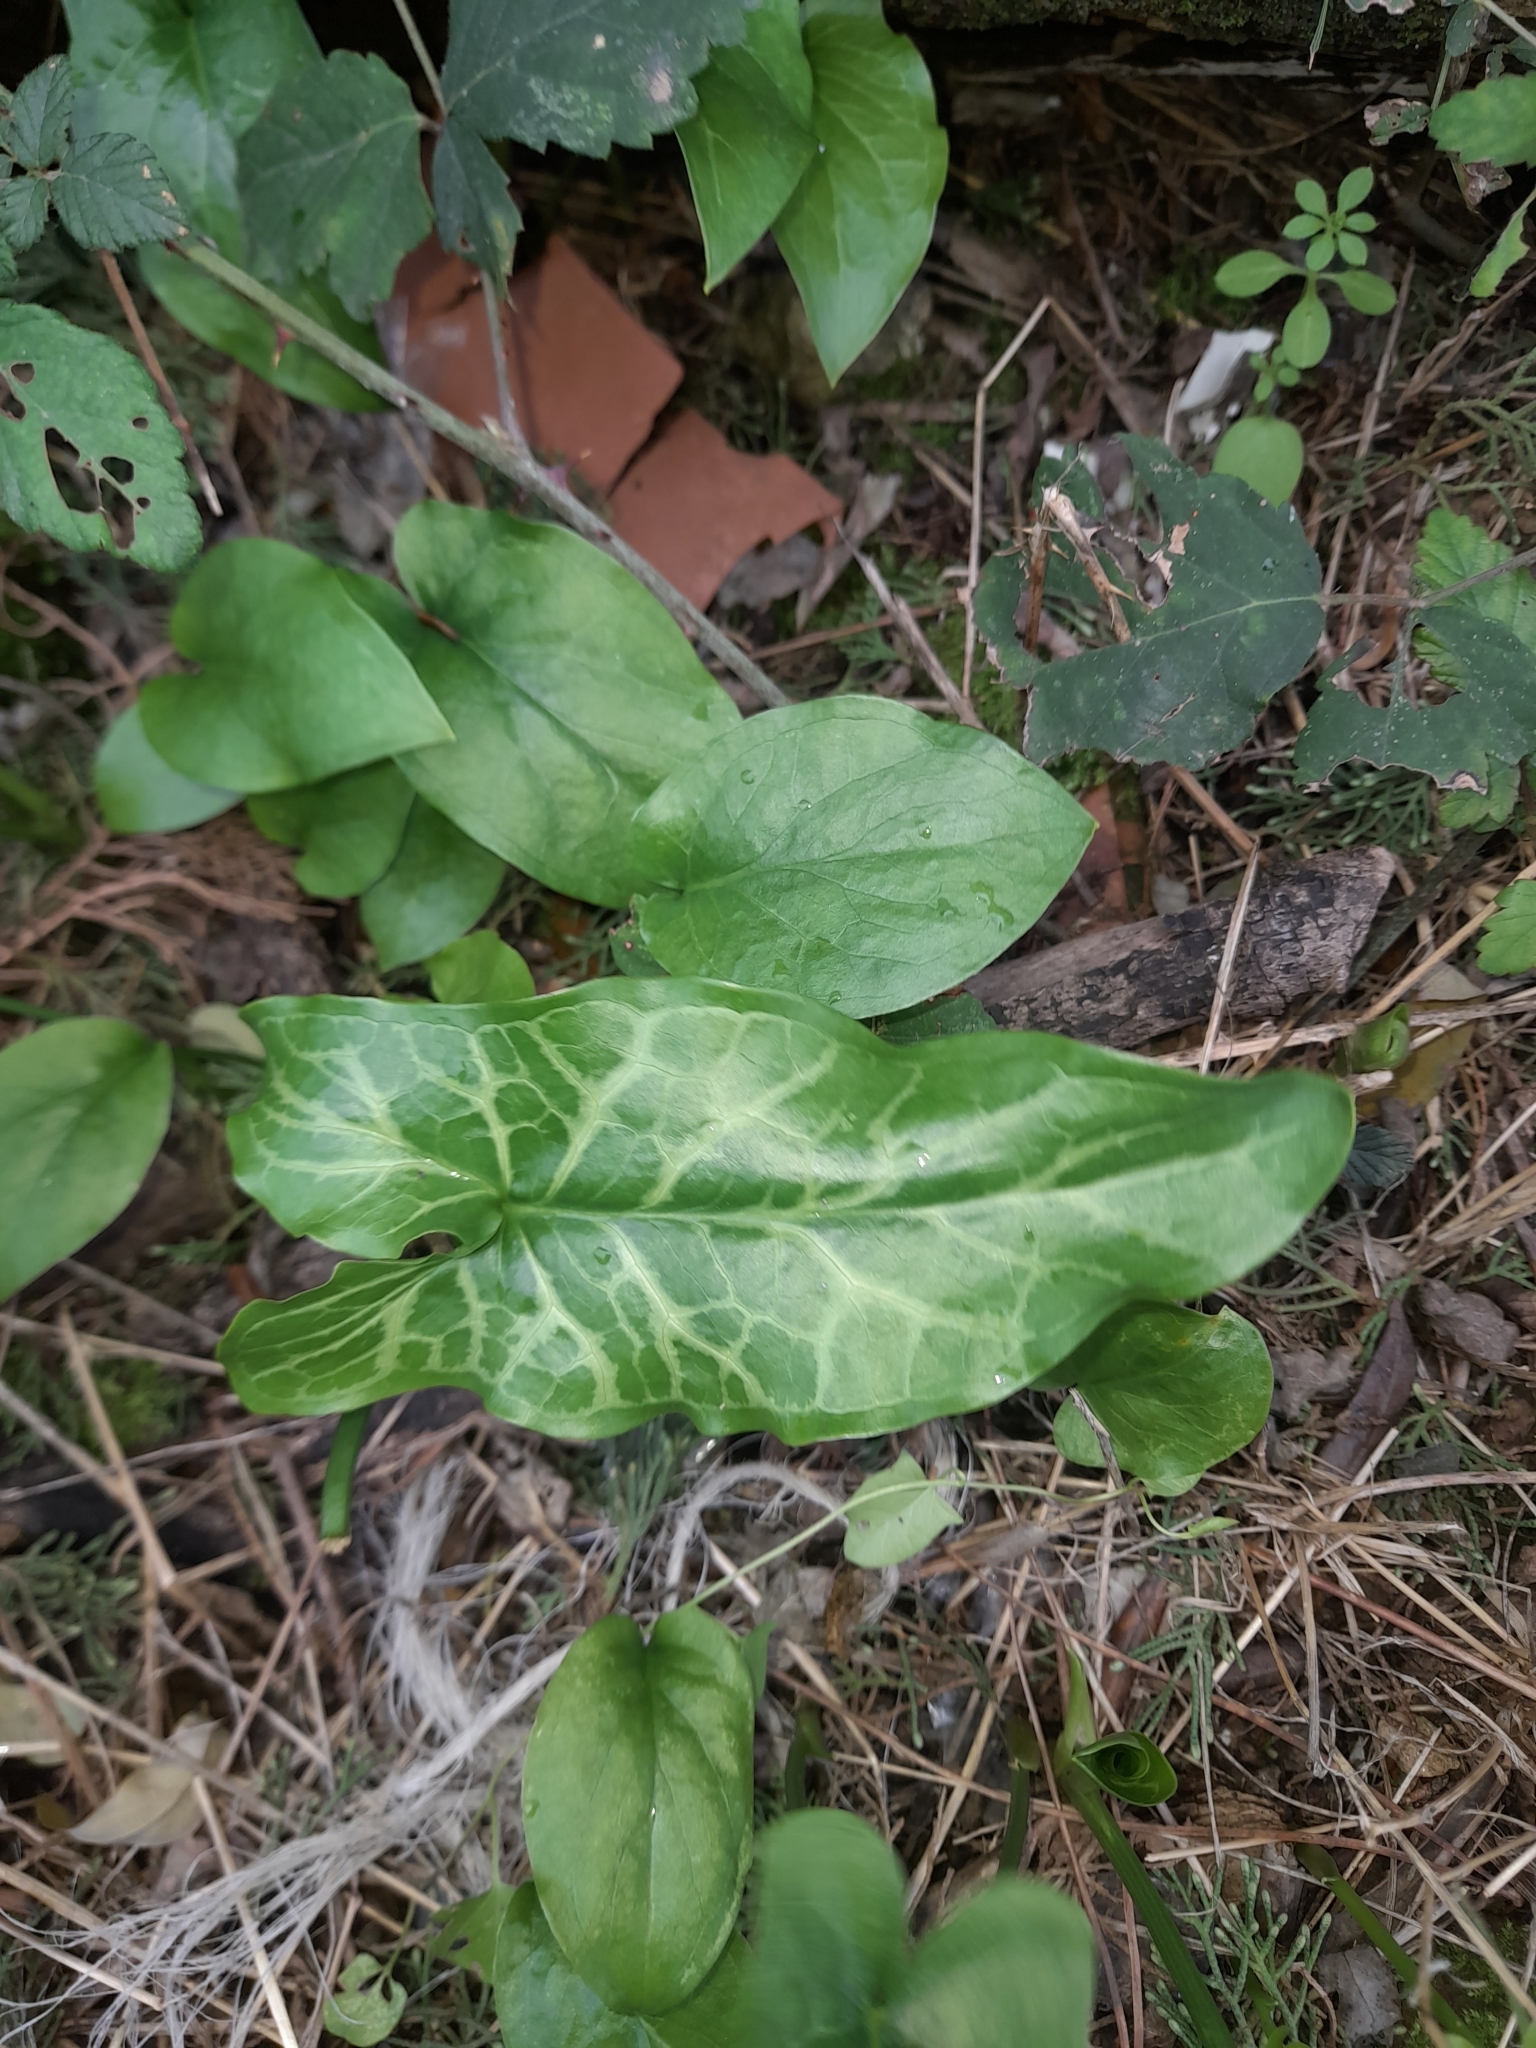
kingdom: Plantae
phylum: Tracheophyta
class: Liliopsida
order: Alismatales
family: Araceae
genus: Arum
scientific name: Arum italicum
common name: Italian lords-and-ladies
